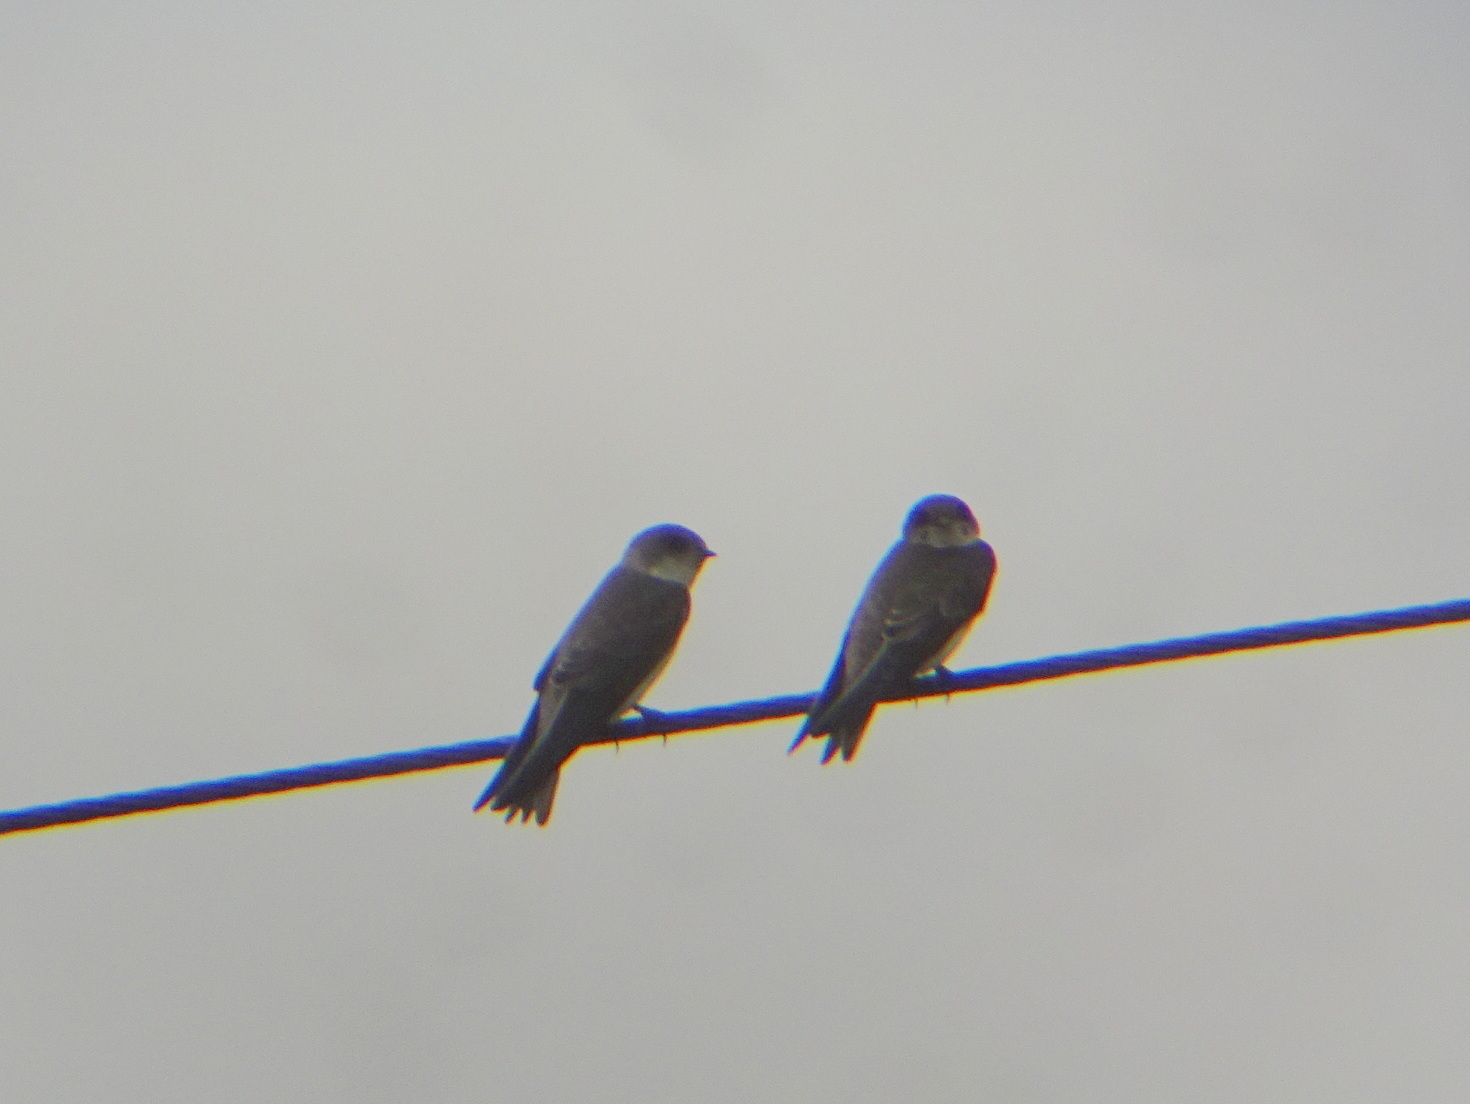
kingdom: Animalia
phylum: Chordata
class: Aves
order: Passeriformes
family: Hirundinidae
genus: Riparia
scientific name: Riparia riparia
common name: Sand martin
